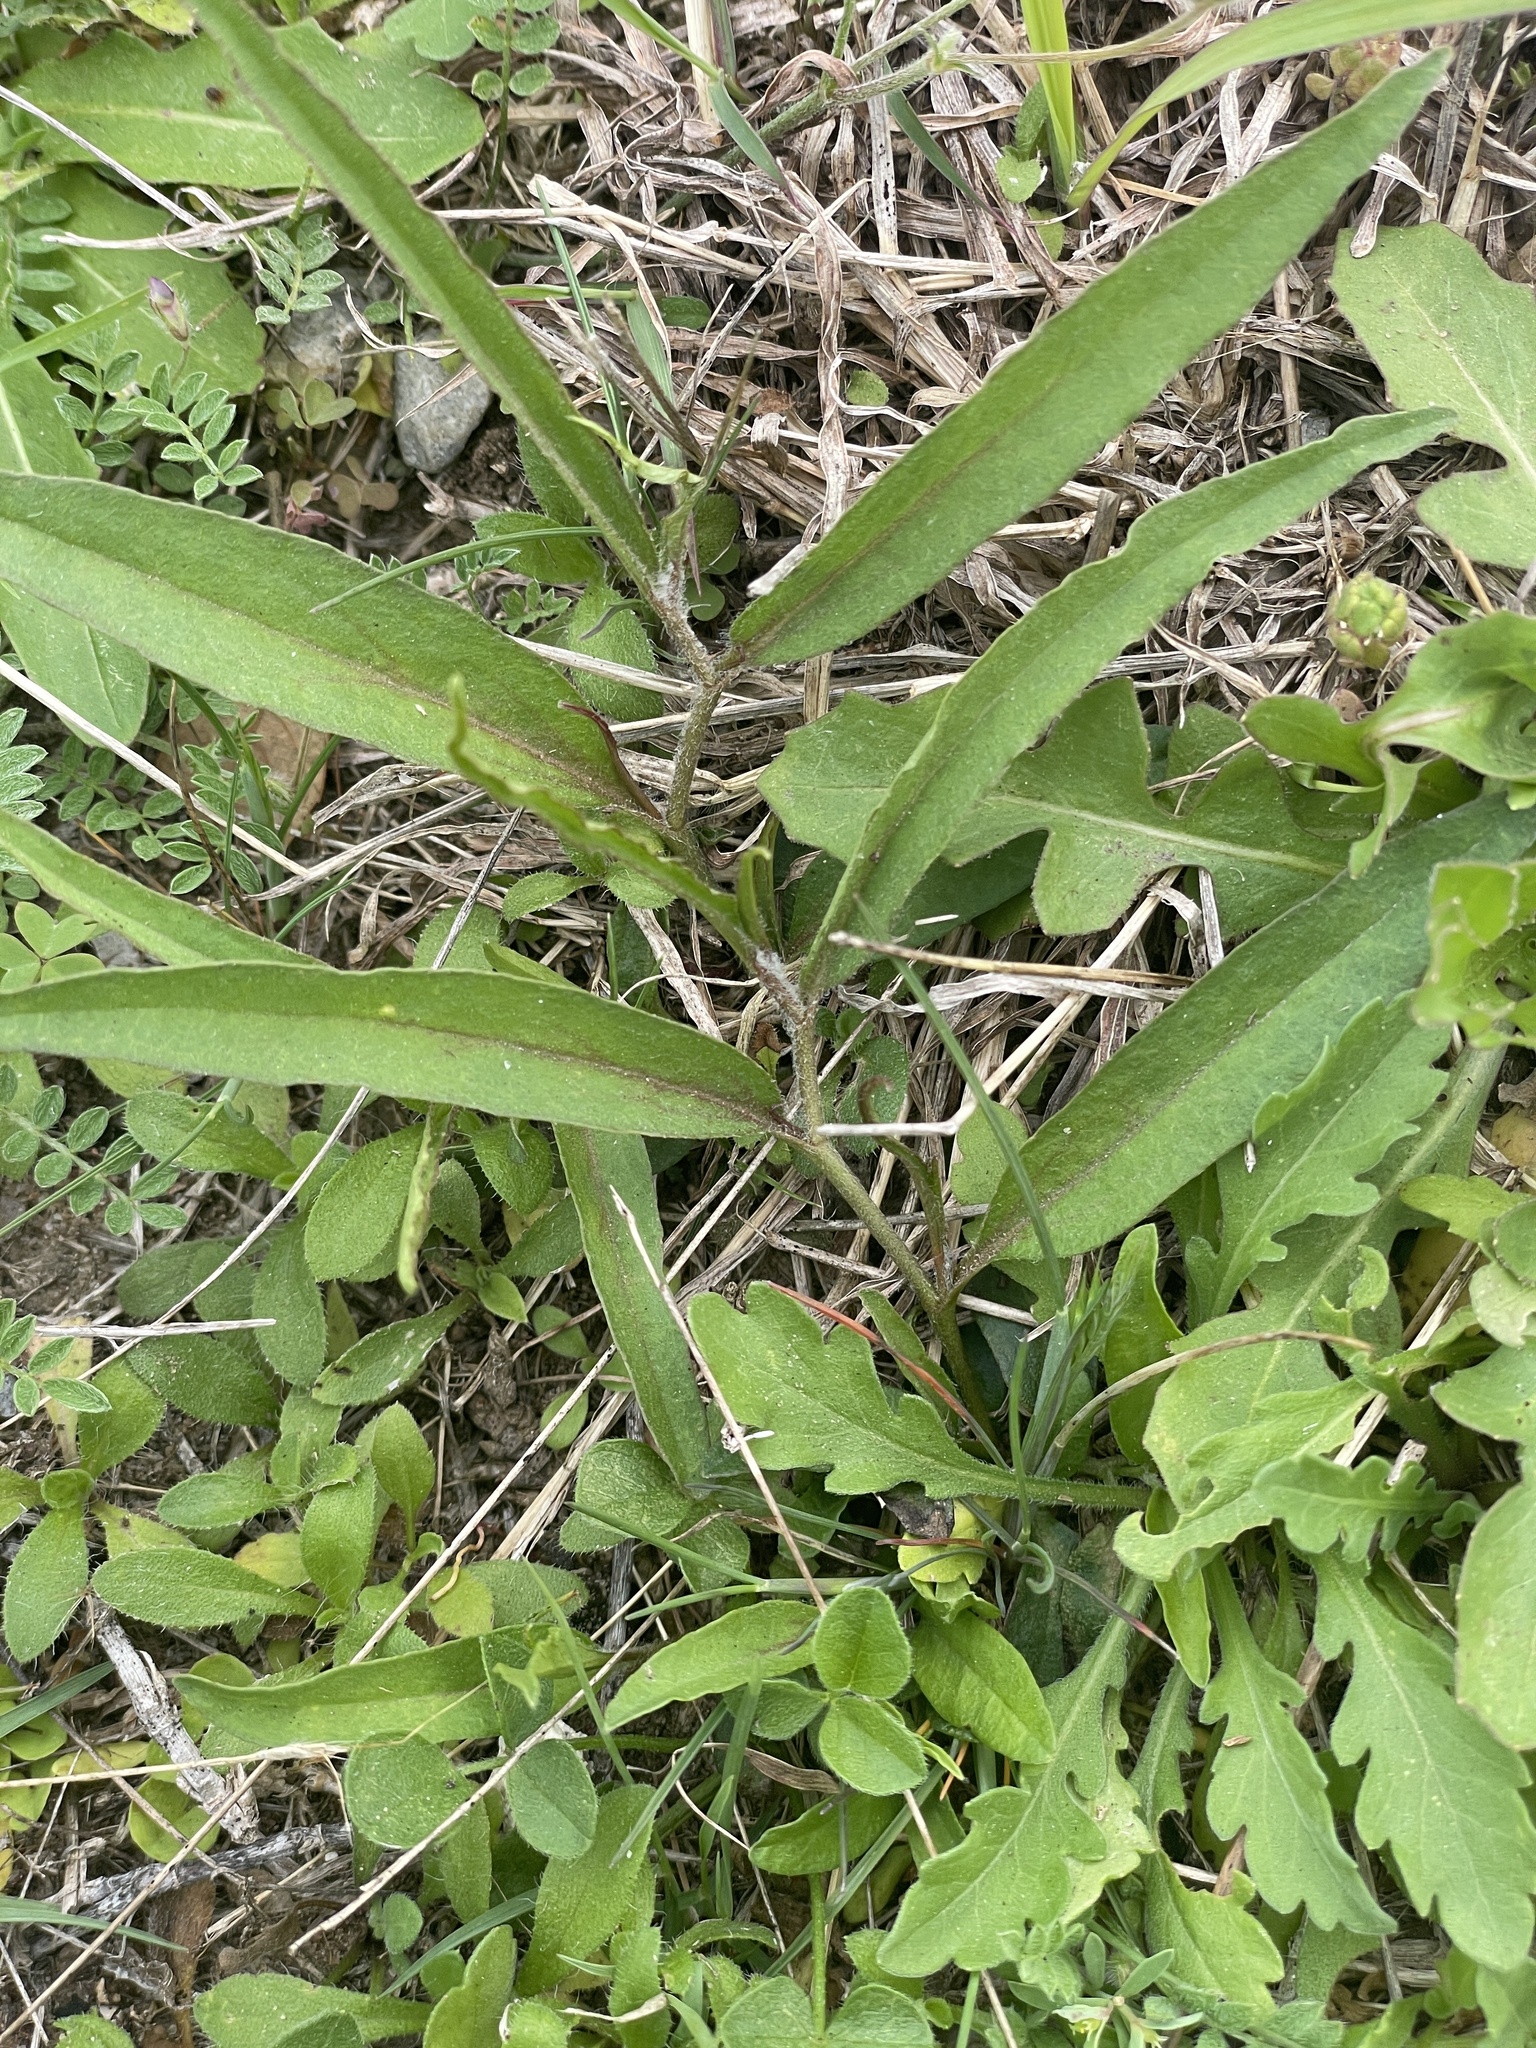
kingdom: Plantae
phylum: Tracheophyta
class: Magnoliopsida
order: Piperales
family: Aristolochiaceae
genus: Aristolochia
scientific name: Aristolochia erecta
